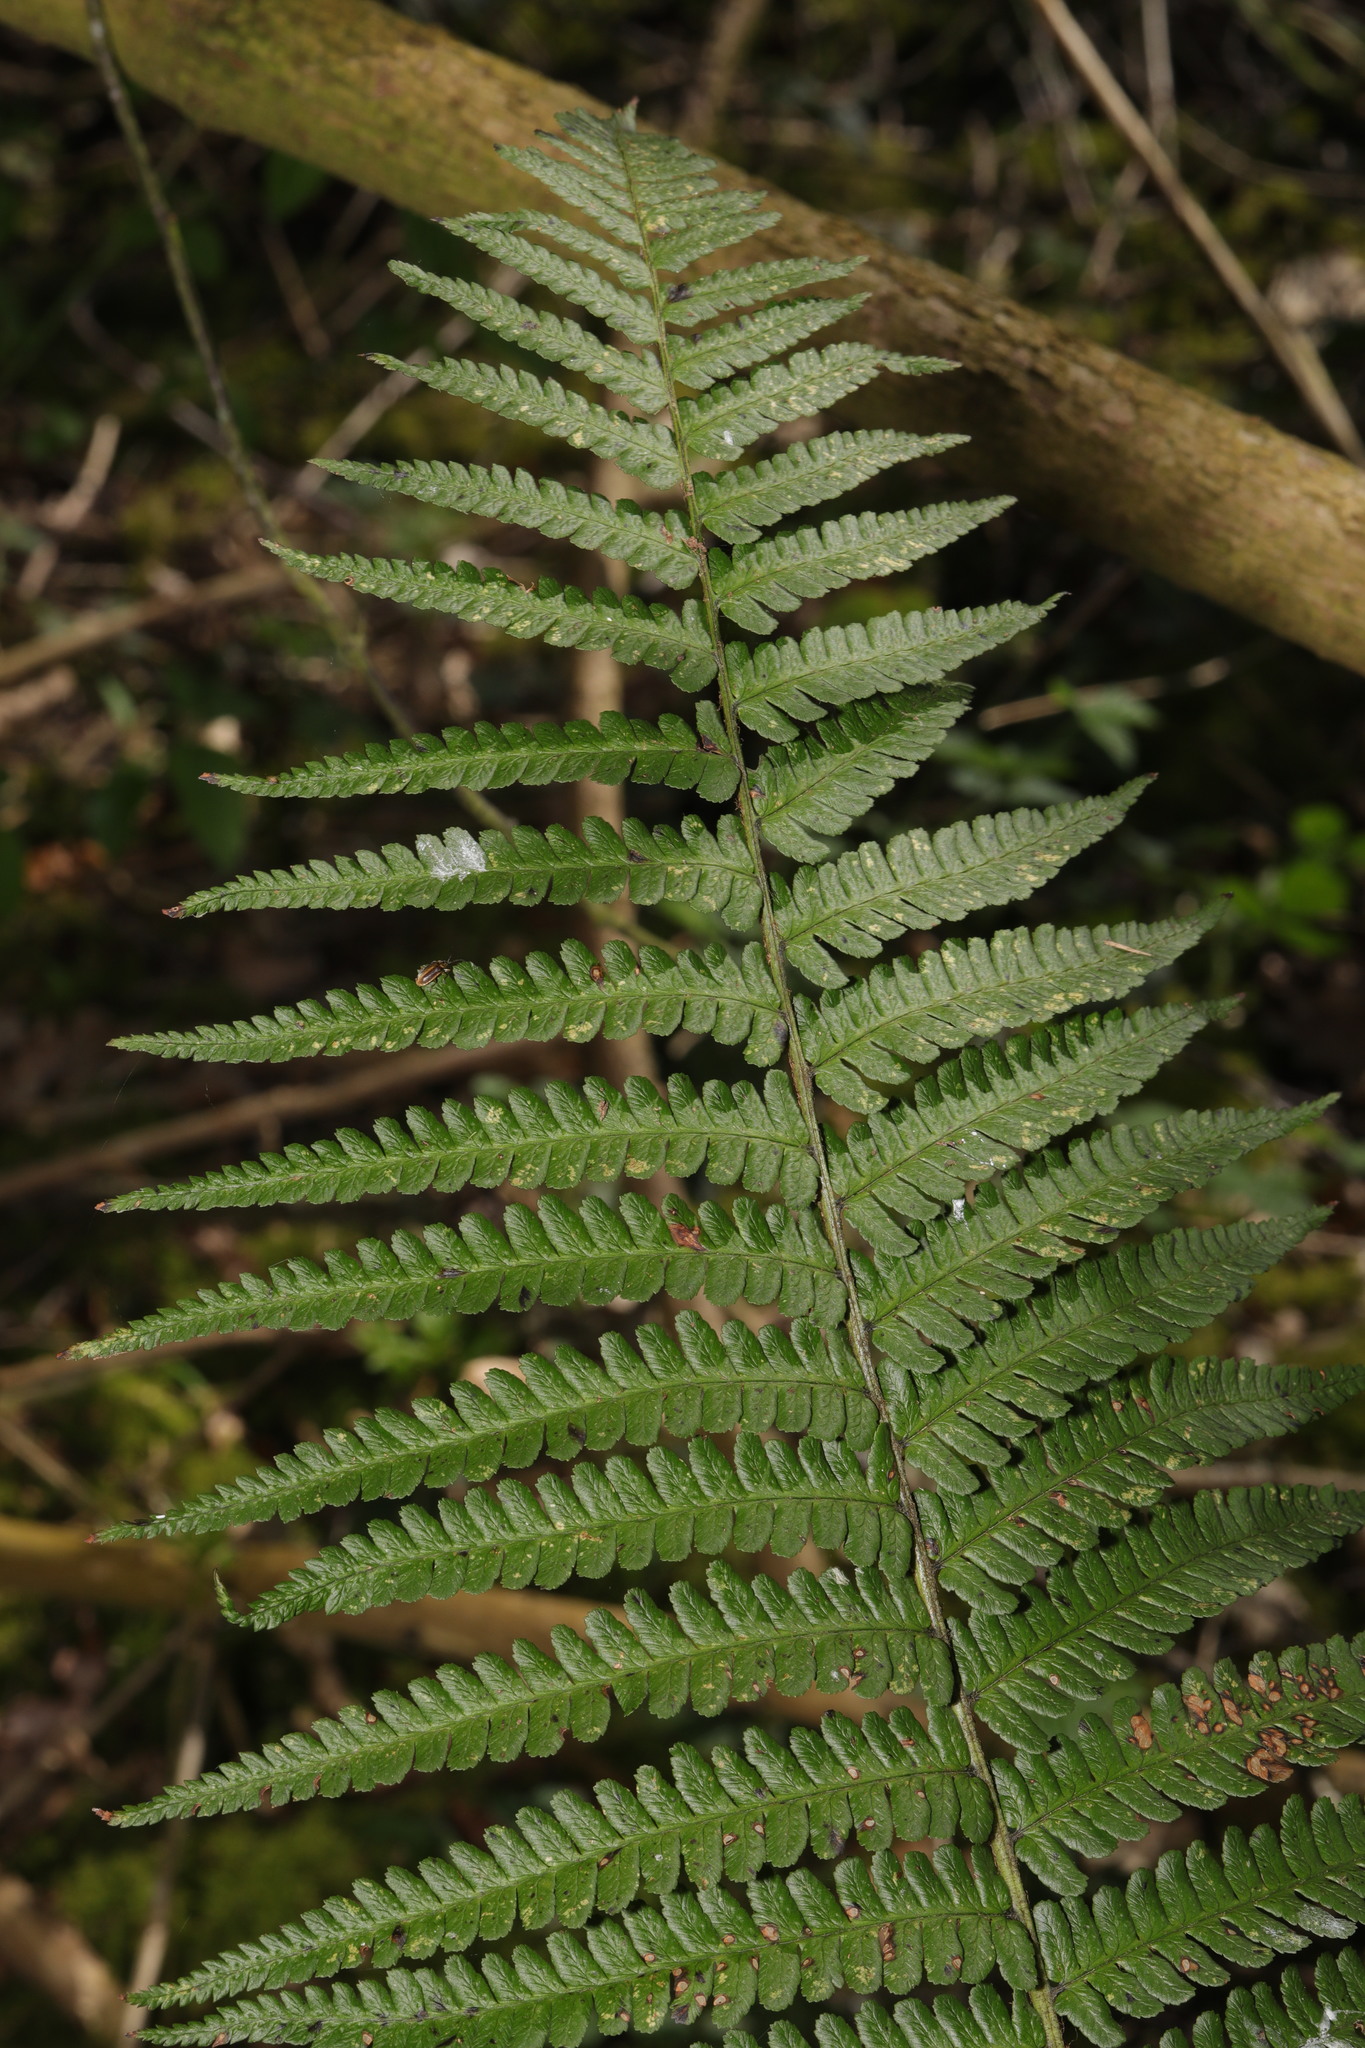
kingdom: Plantae
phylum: Tracheophyta
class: Polypodiopsida
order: Polypodiales
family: Dryopteridaceae
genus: Dryopteris
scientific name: Dryopteris
